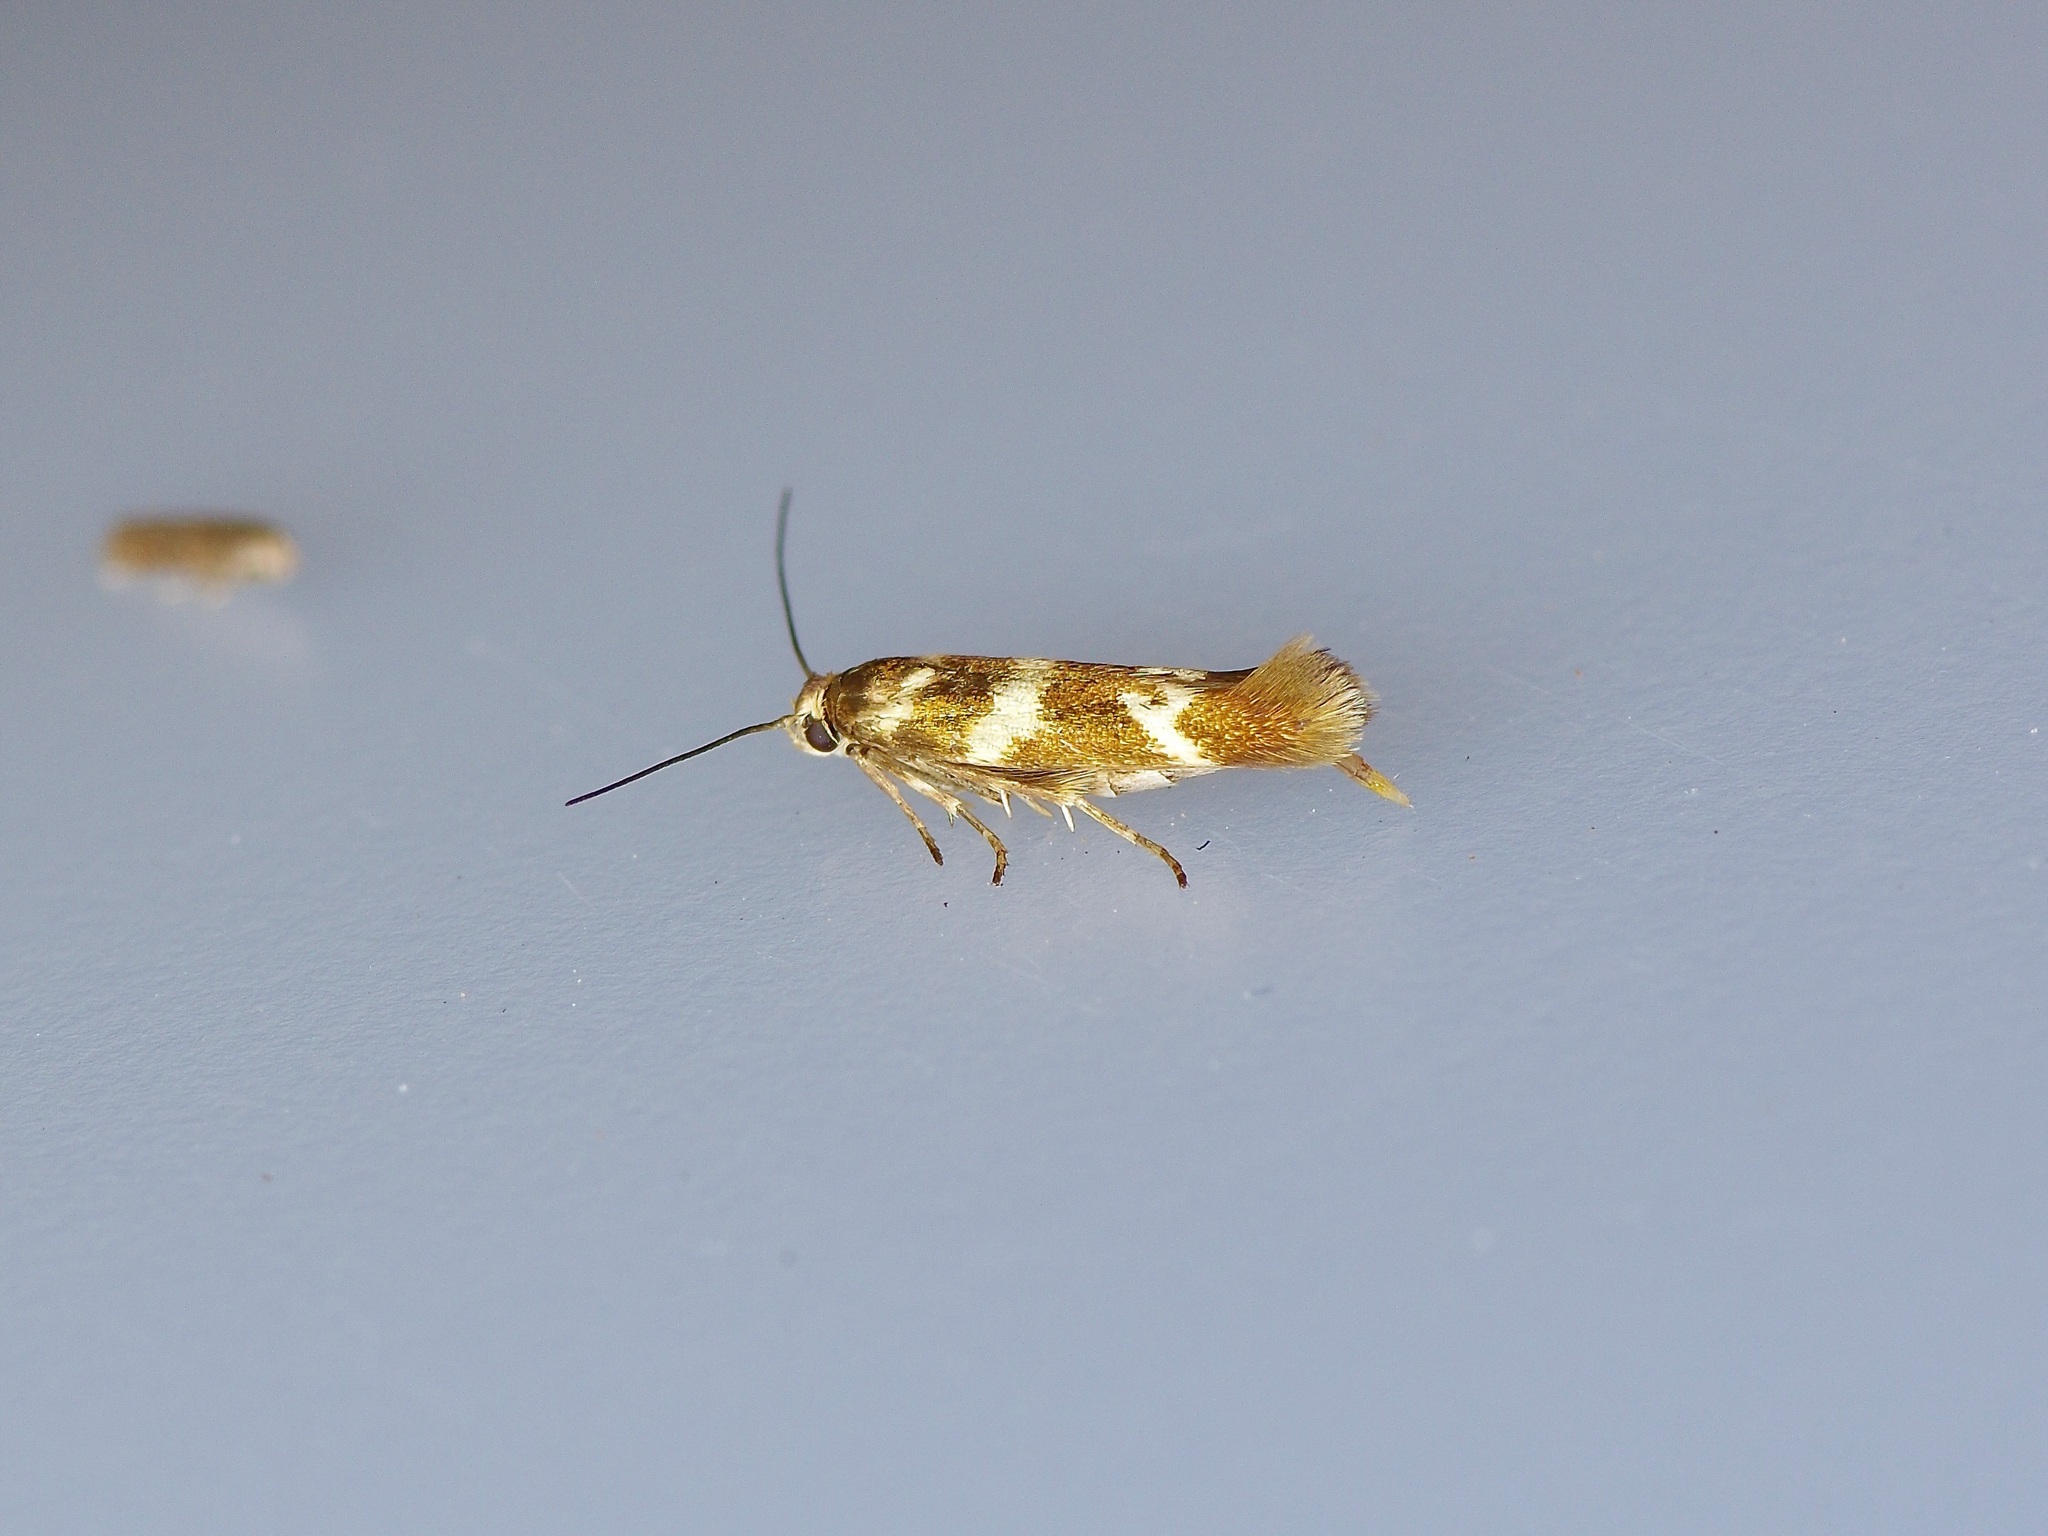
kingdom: Animalia
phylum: Arthropoda
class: Insecta
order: Lepidoptera
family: Scythrididae
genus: Scythris
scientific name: Scythris trivinctella
